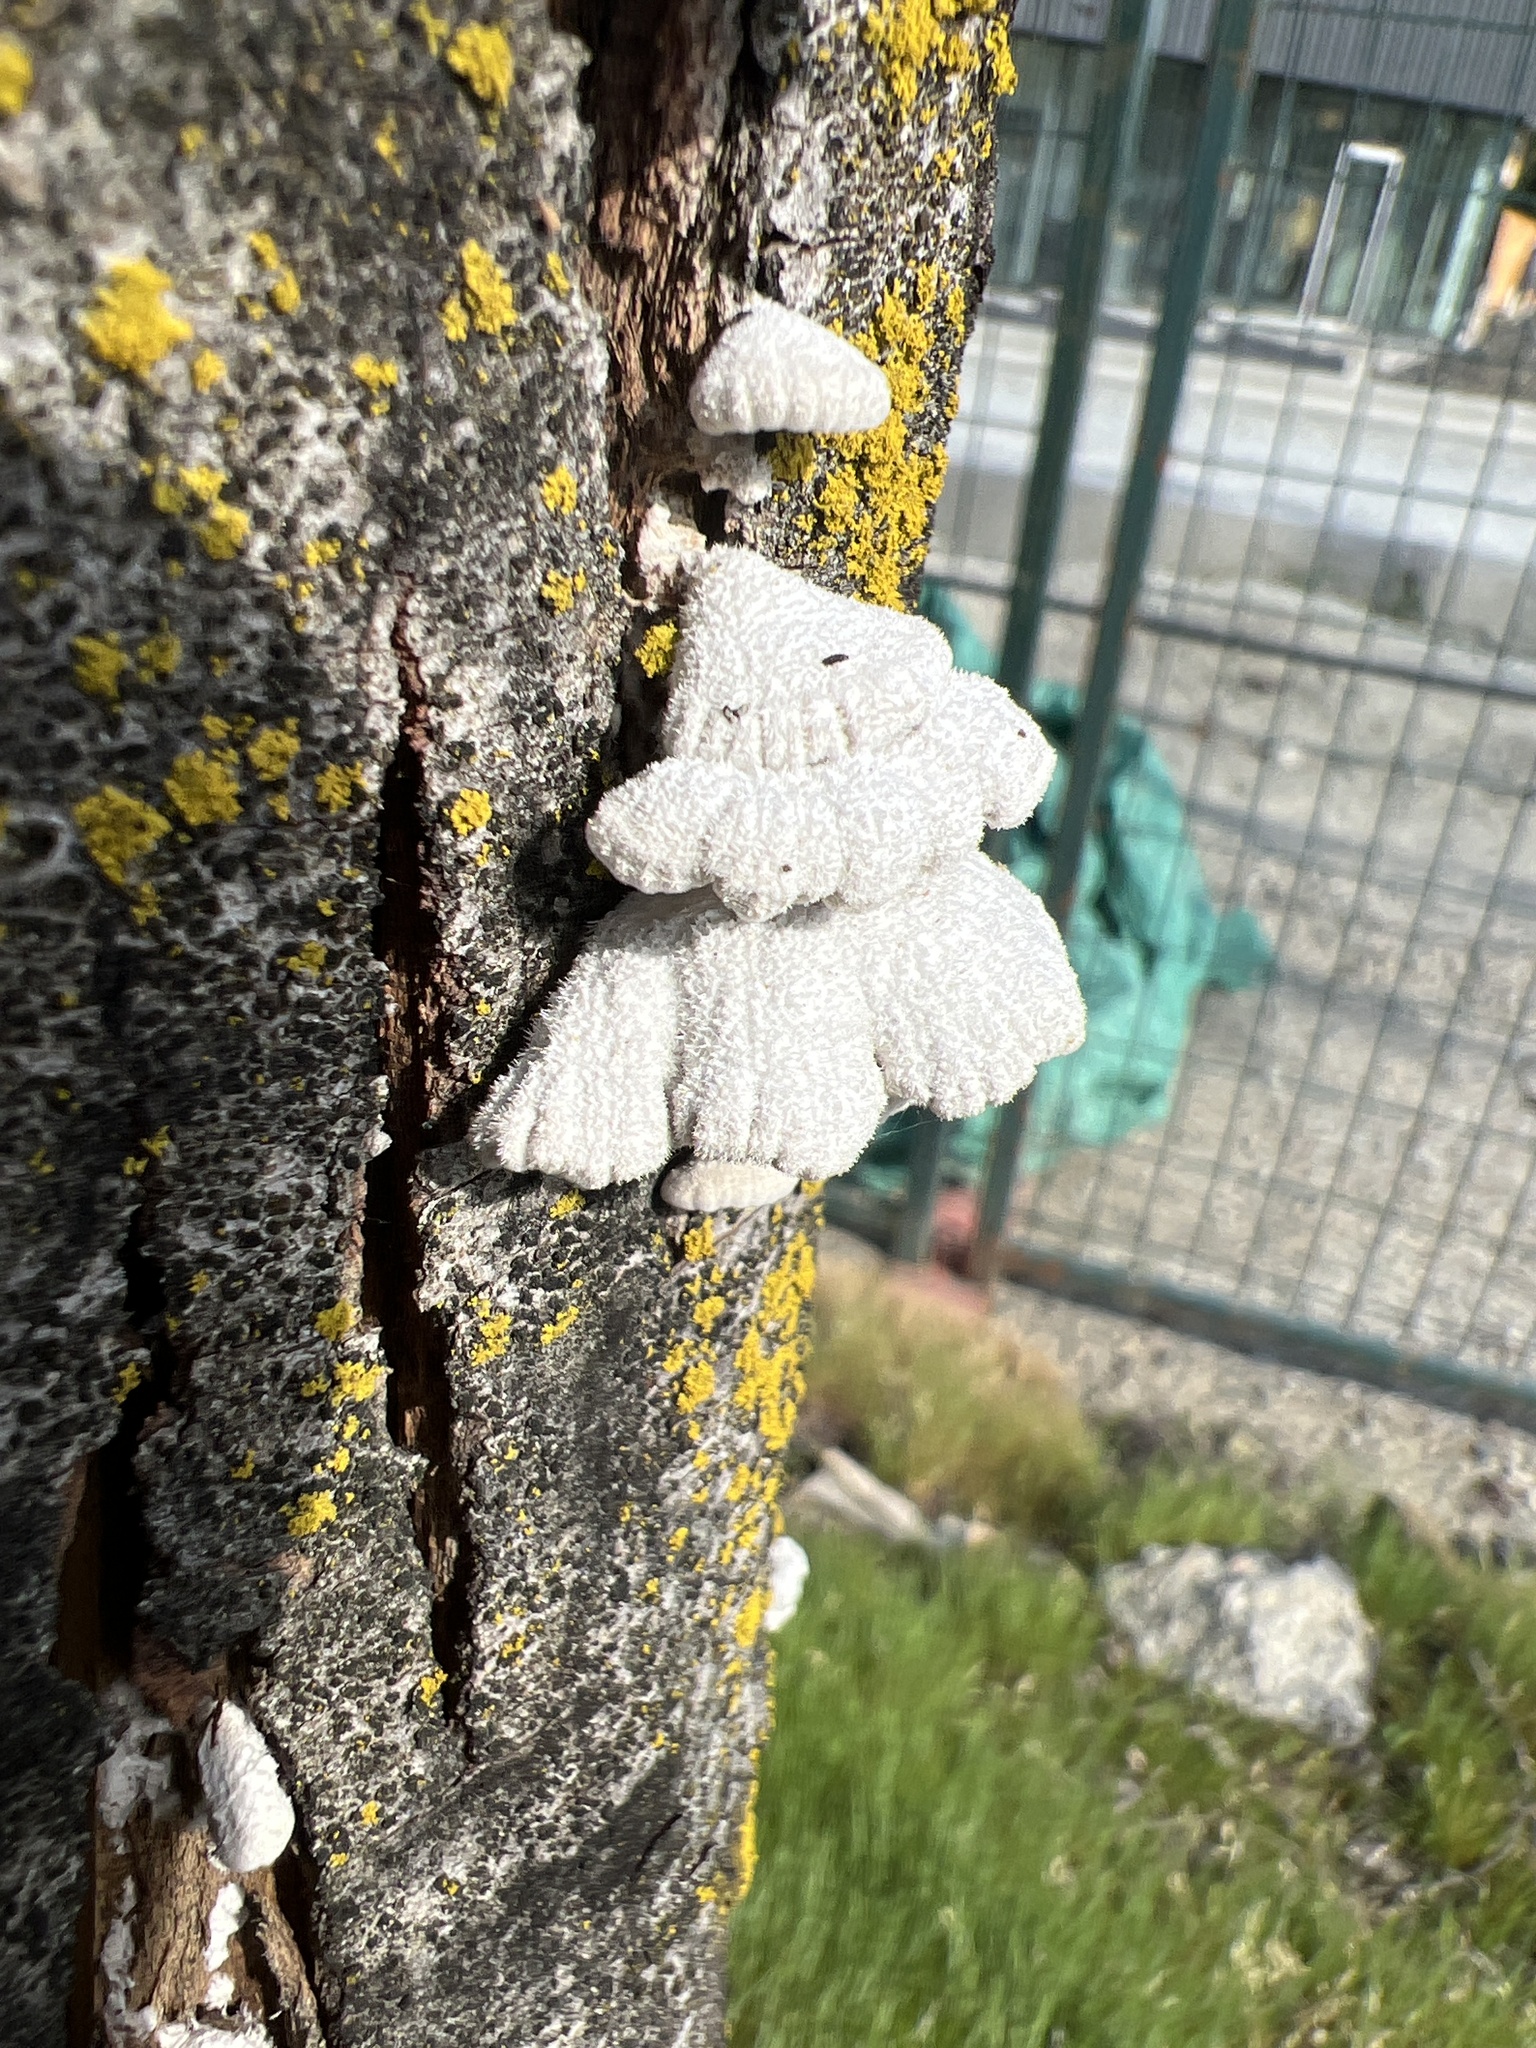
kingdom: Fungi
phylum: Basidiomycota
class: Agaricomycetes
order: Agaricales
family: Schizophyllaceae
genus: Schizophyllum
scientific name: Schizophyllum commune
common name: Common porecrust
